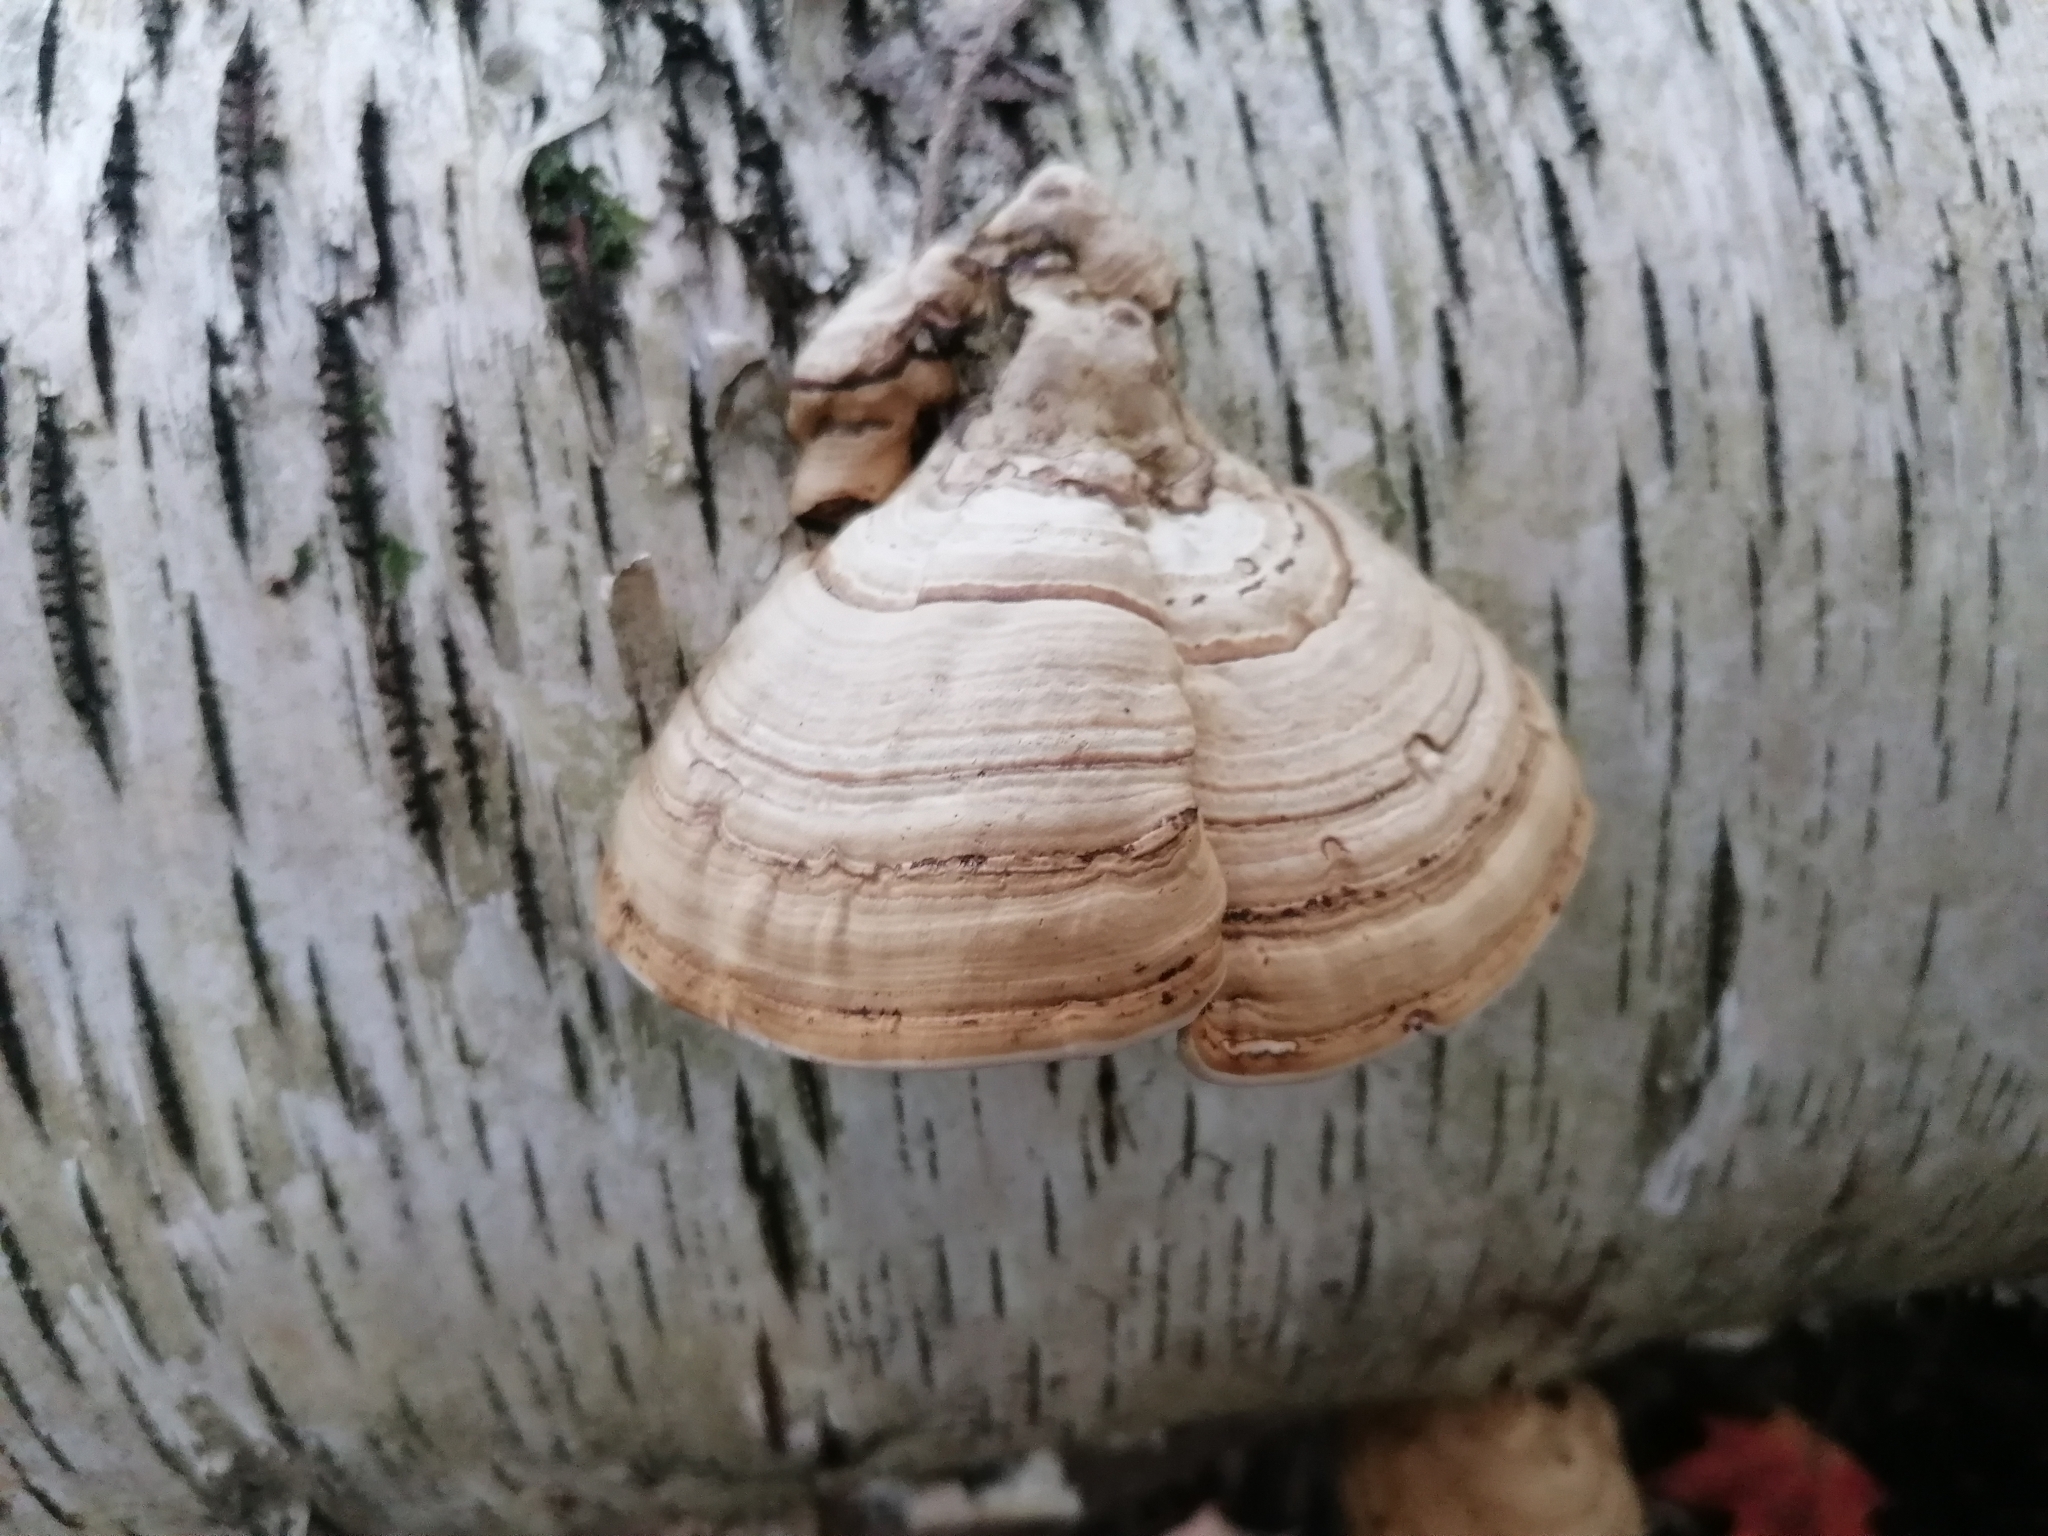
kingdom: Fungi
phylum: Basidiomycota
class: Agaricomycetes
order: Polyporales
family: Polyporaceae
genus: Fomes
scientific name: Fomes fomentarius
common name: Hoof fungus
